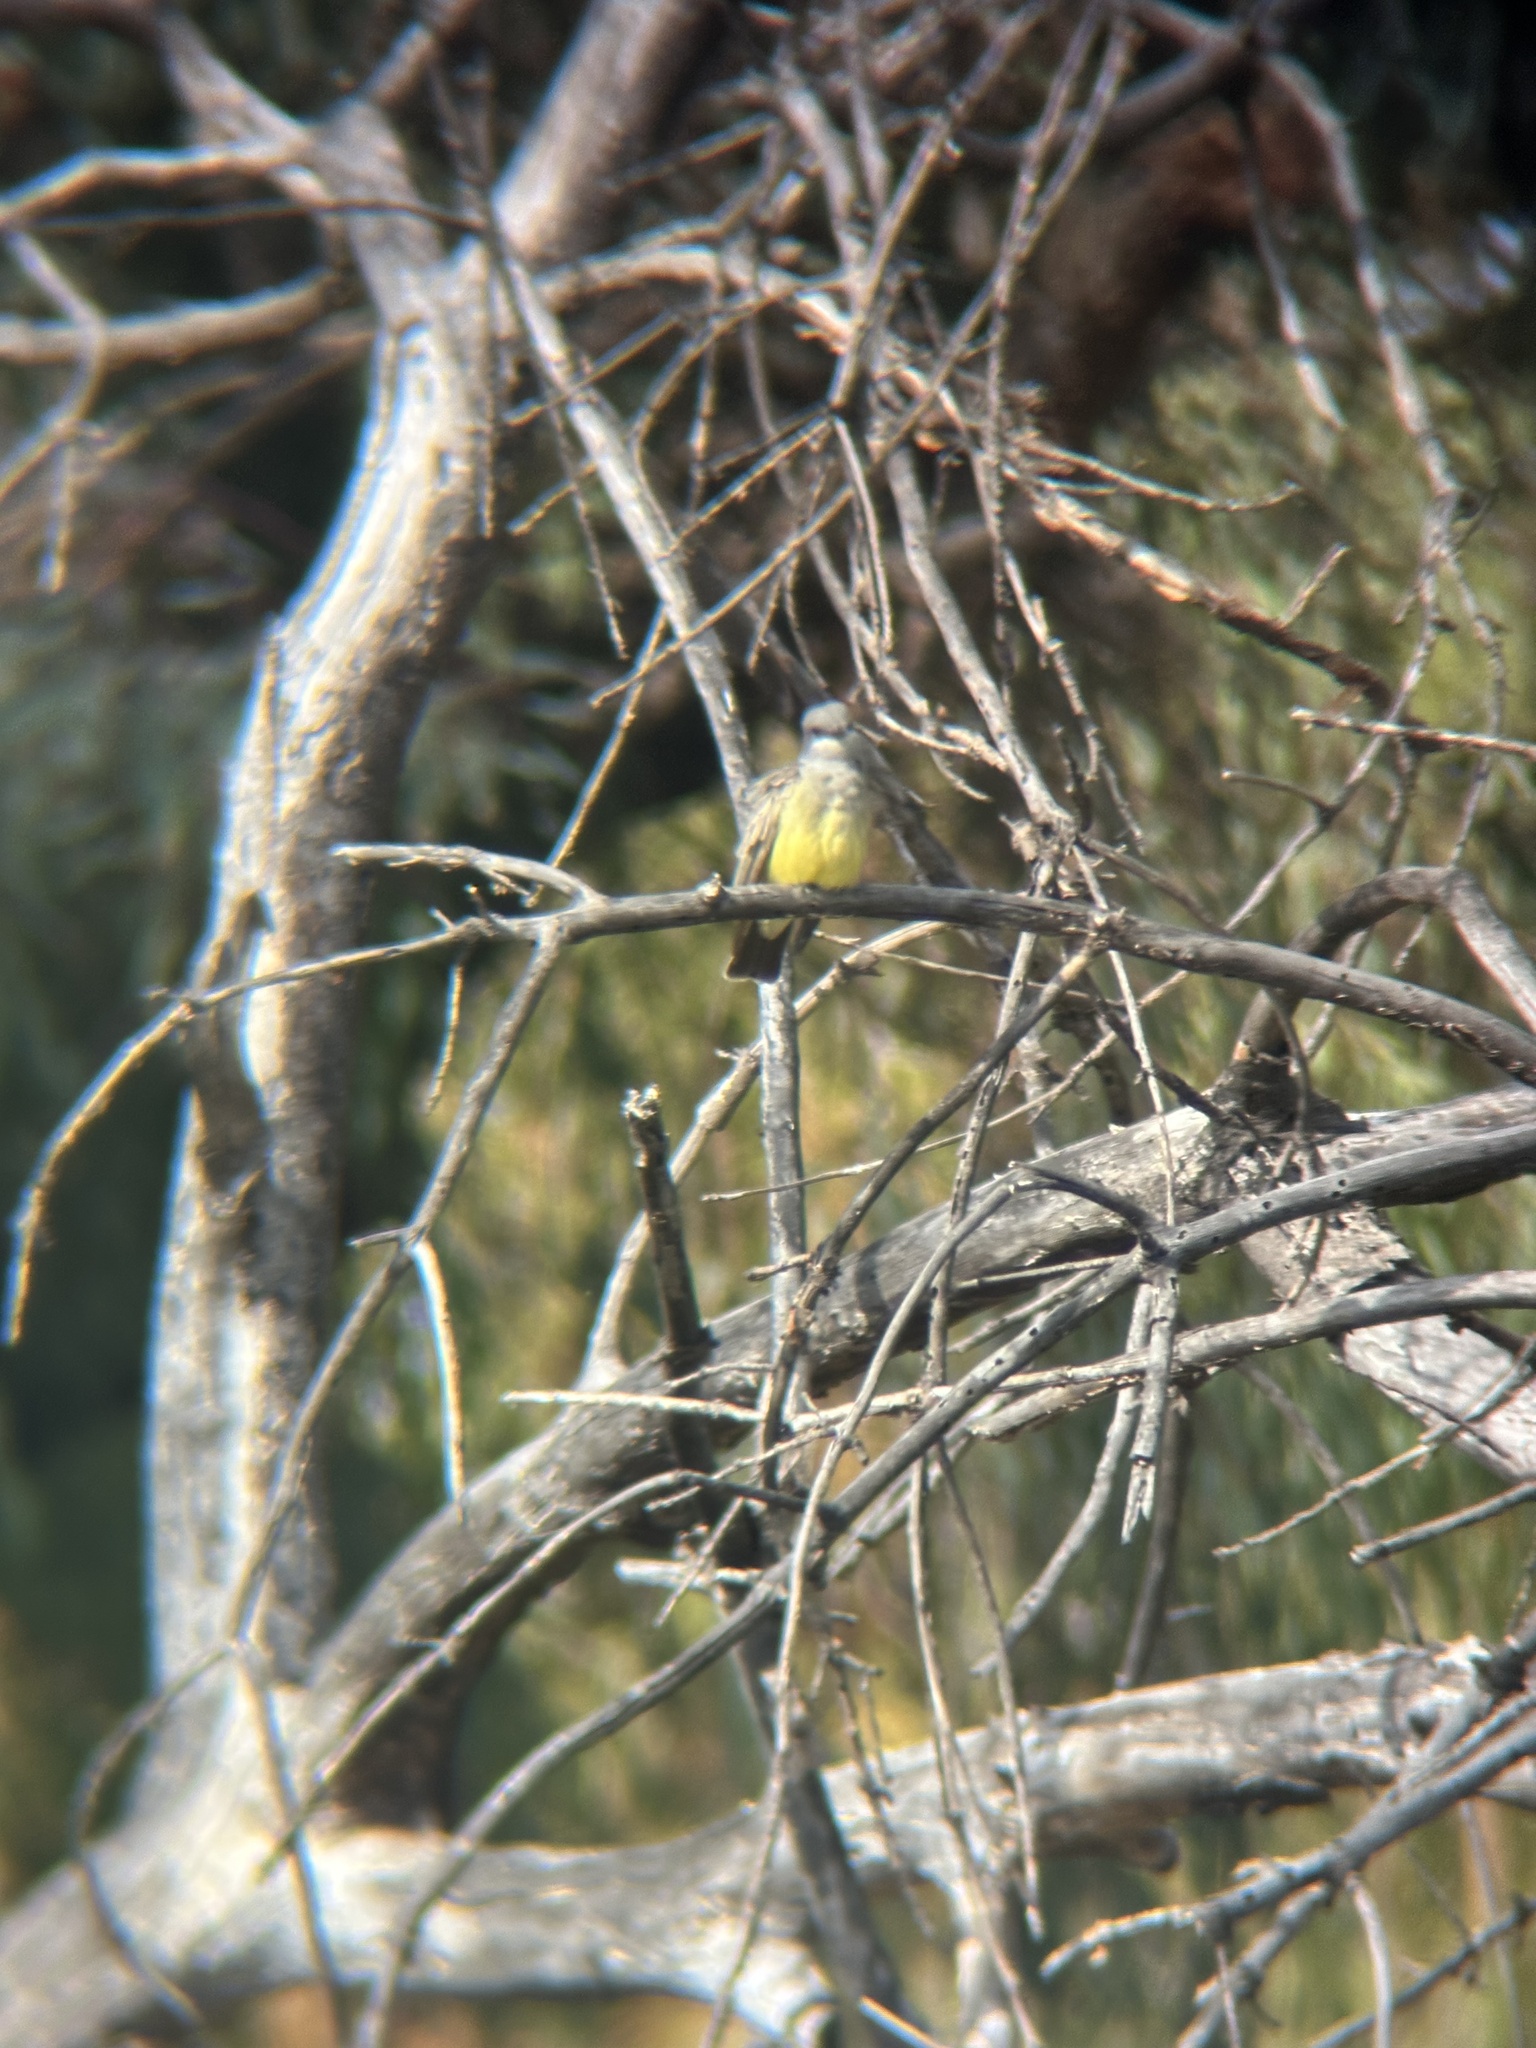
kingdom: Animalia
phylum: Chordata
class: Aves
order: Passeriformes
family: Tyrannidae
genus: Tyrannus
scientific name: Tyrannus vociferans
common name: Cassin's kingbird
